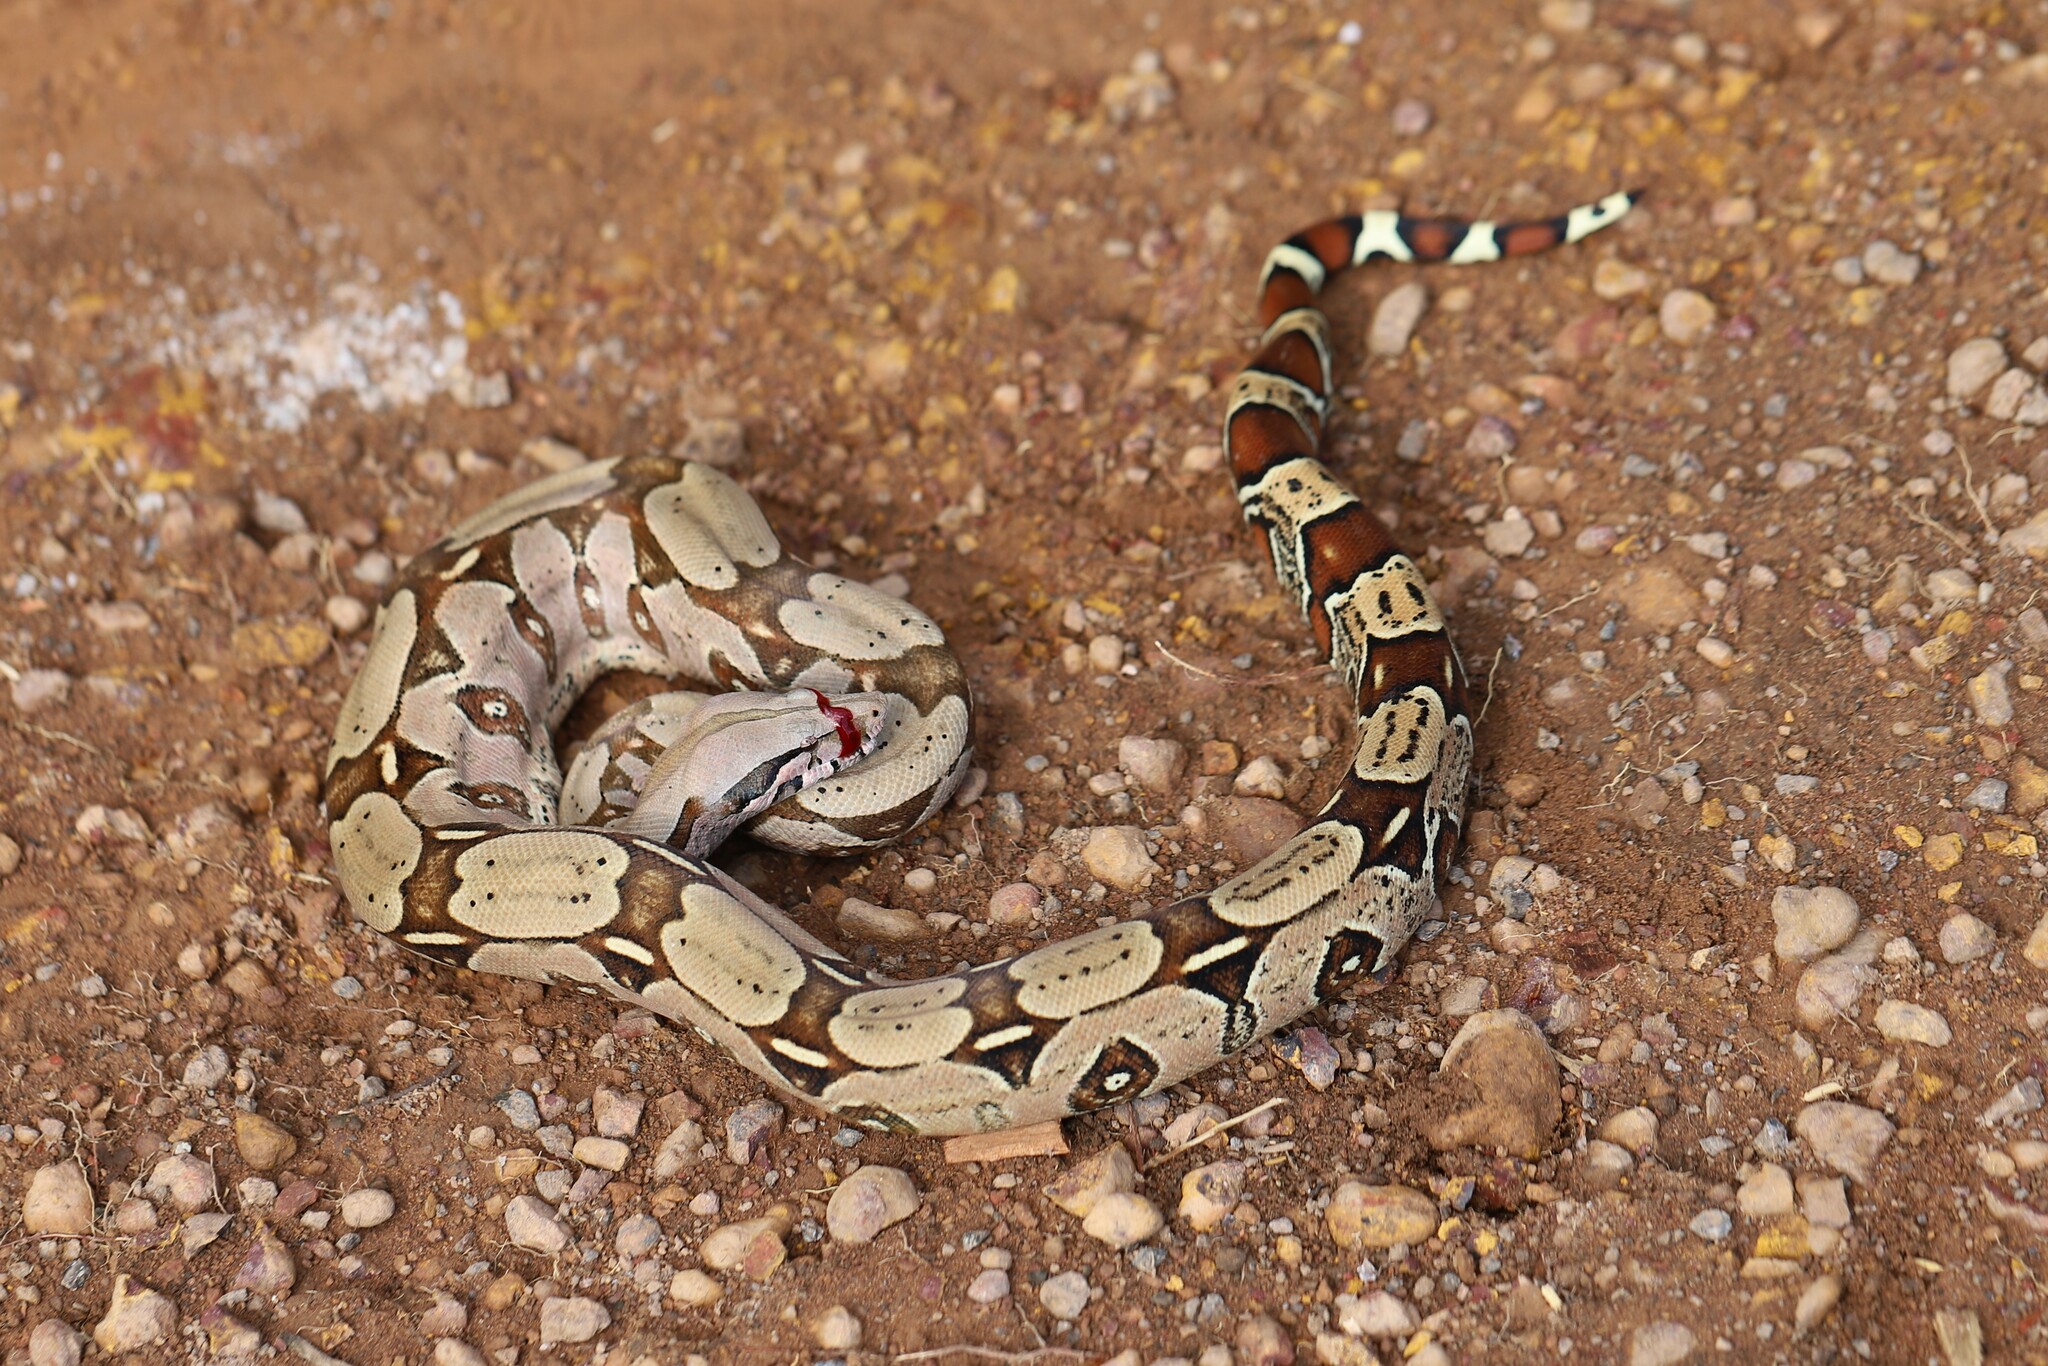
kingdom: Animalia
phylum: Chordata
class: Squamata
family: Boidae
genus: Boa
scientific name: Boa constrictor
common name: Boa constrictor
